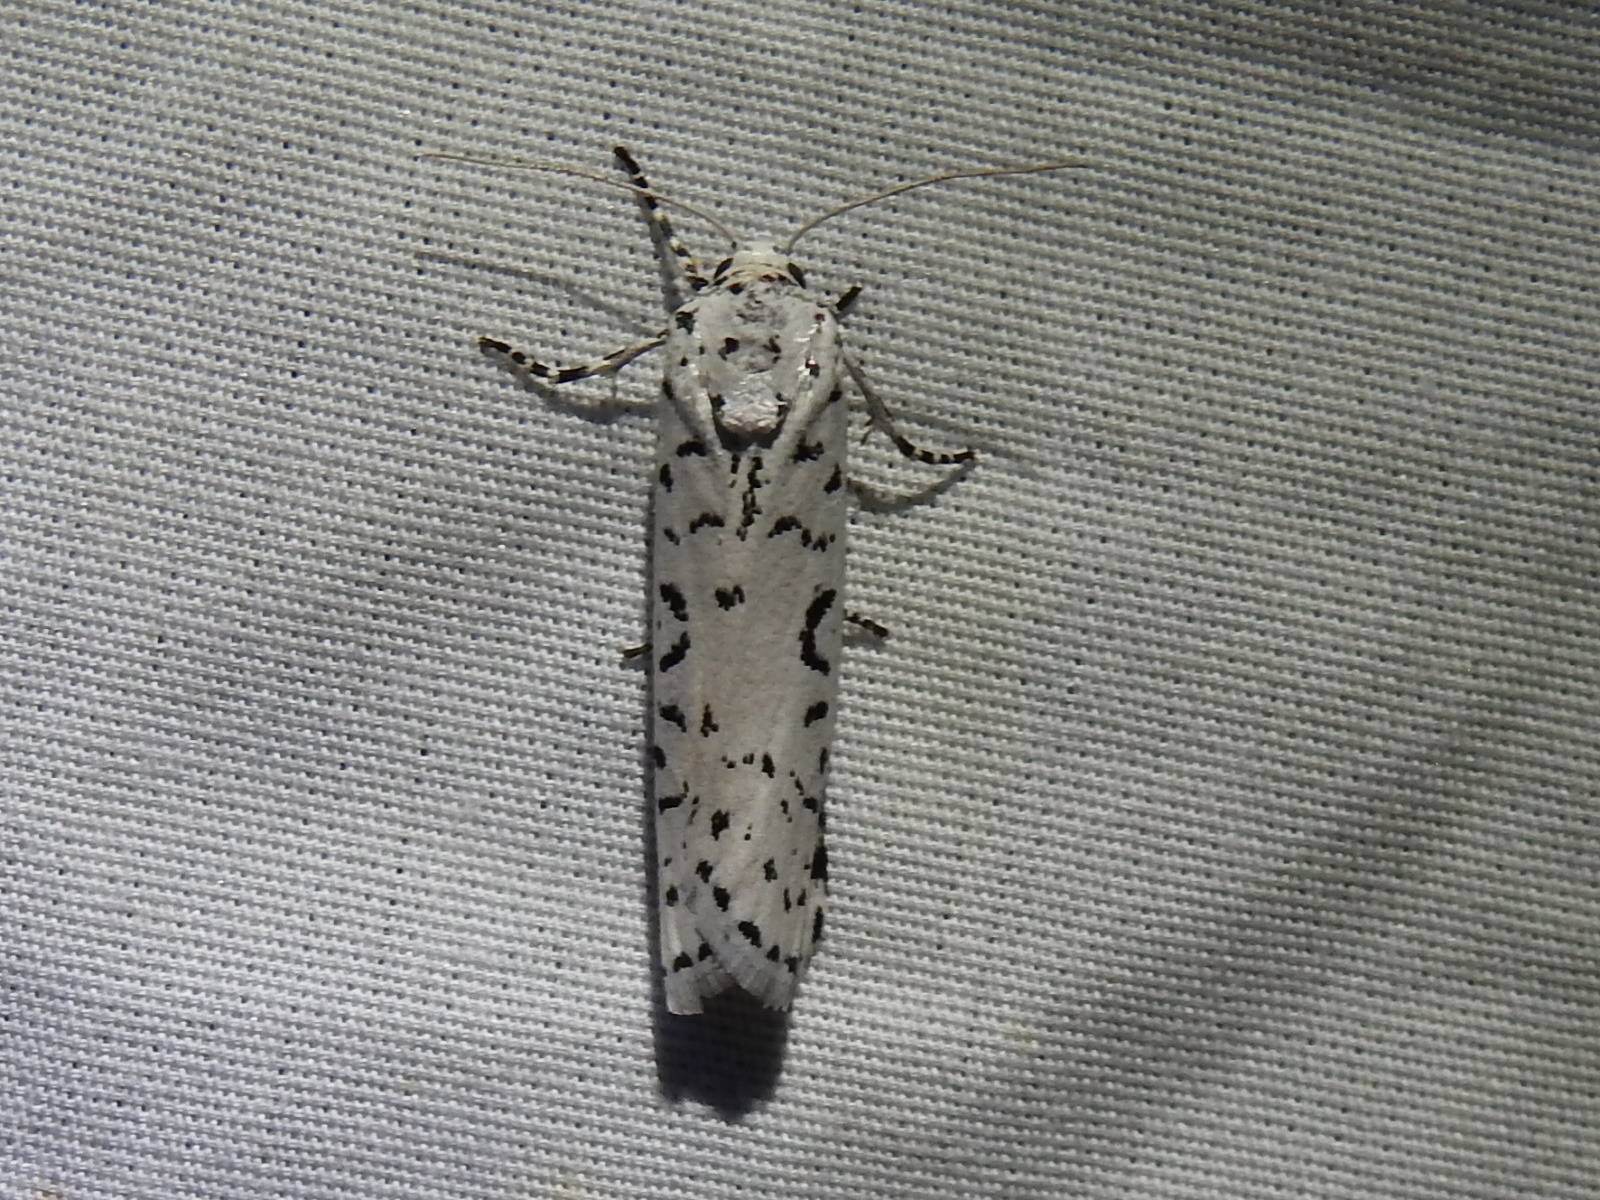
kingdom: Animalia
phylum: Arthropoda
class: Insecta
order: Lepidoptera
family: Noctuidae
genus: Cerathosia
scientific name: Cerathosia tricolor
